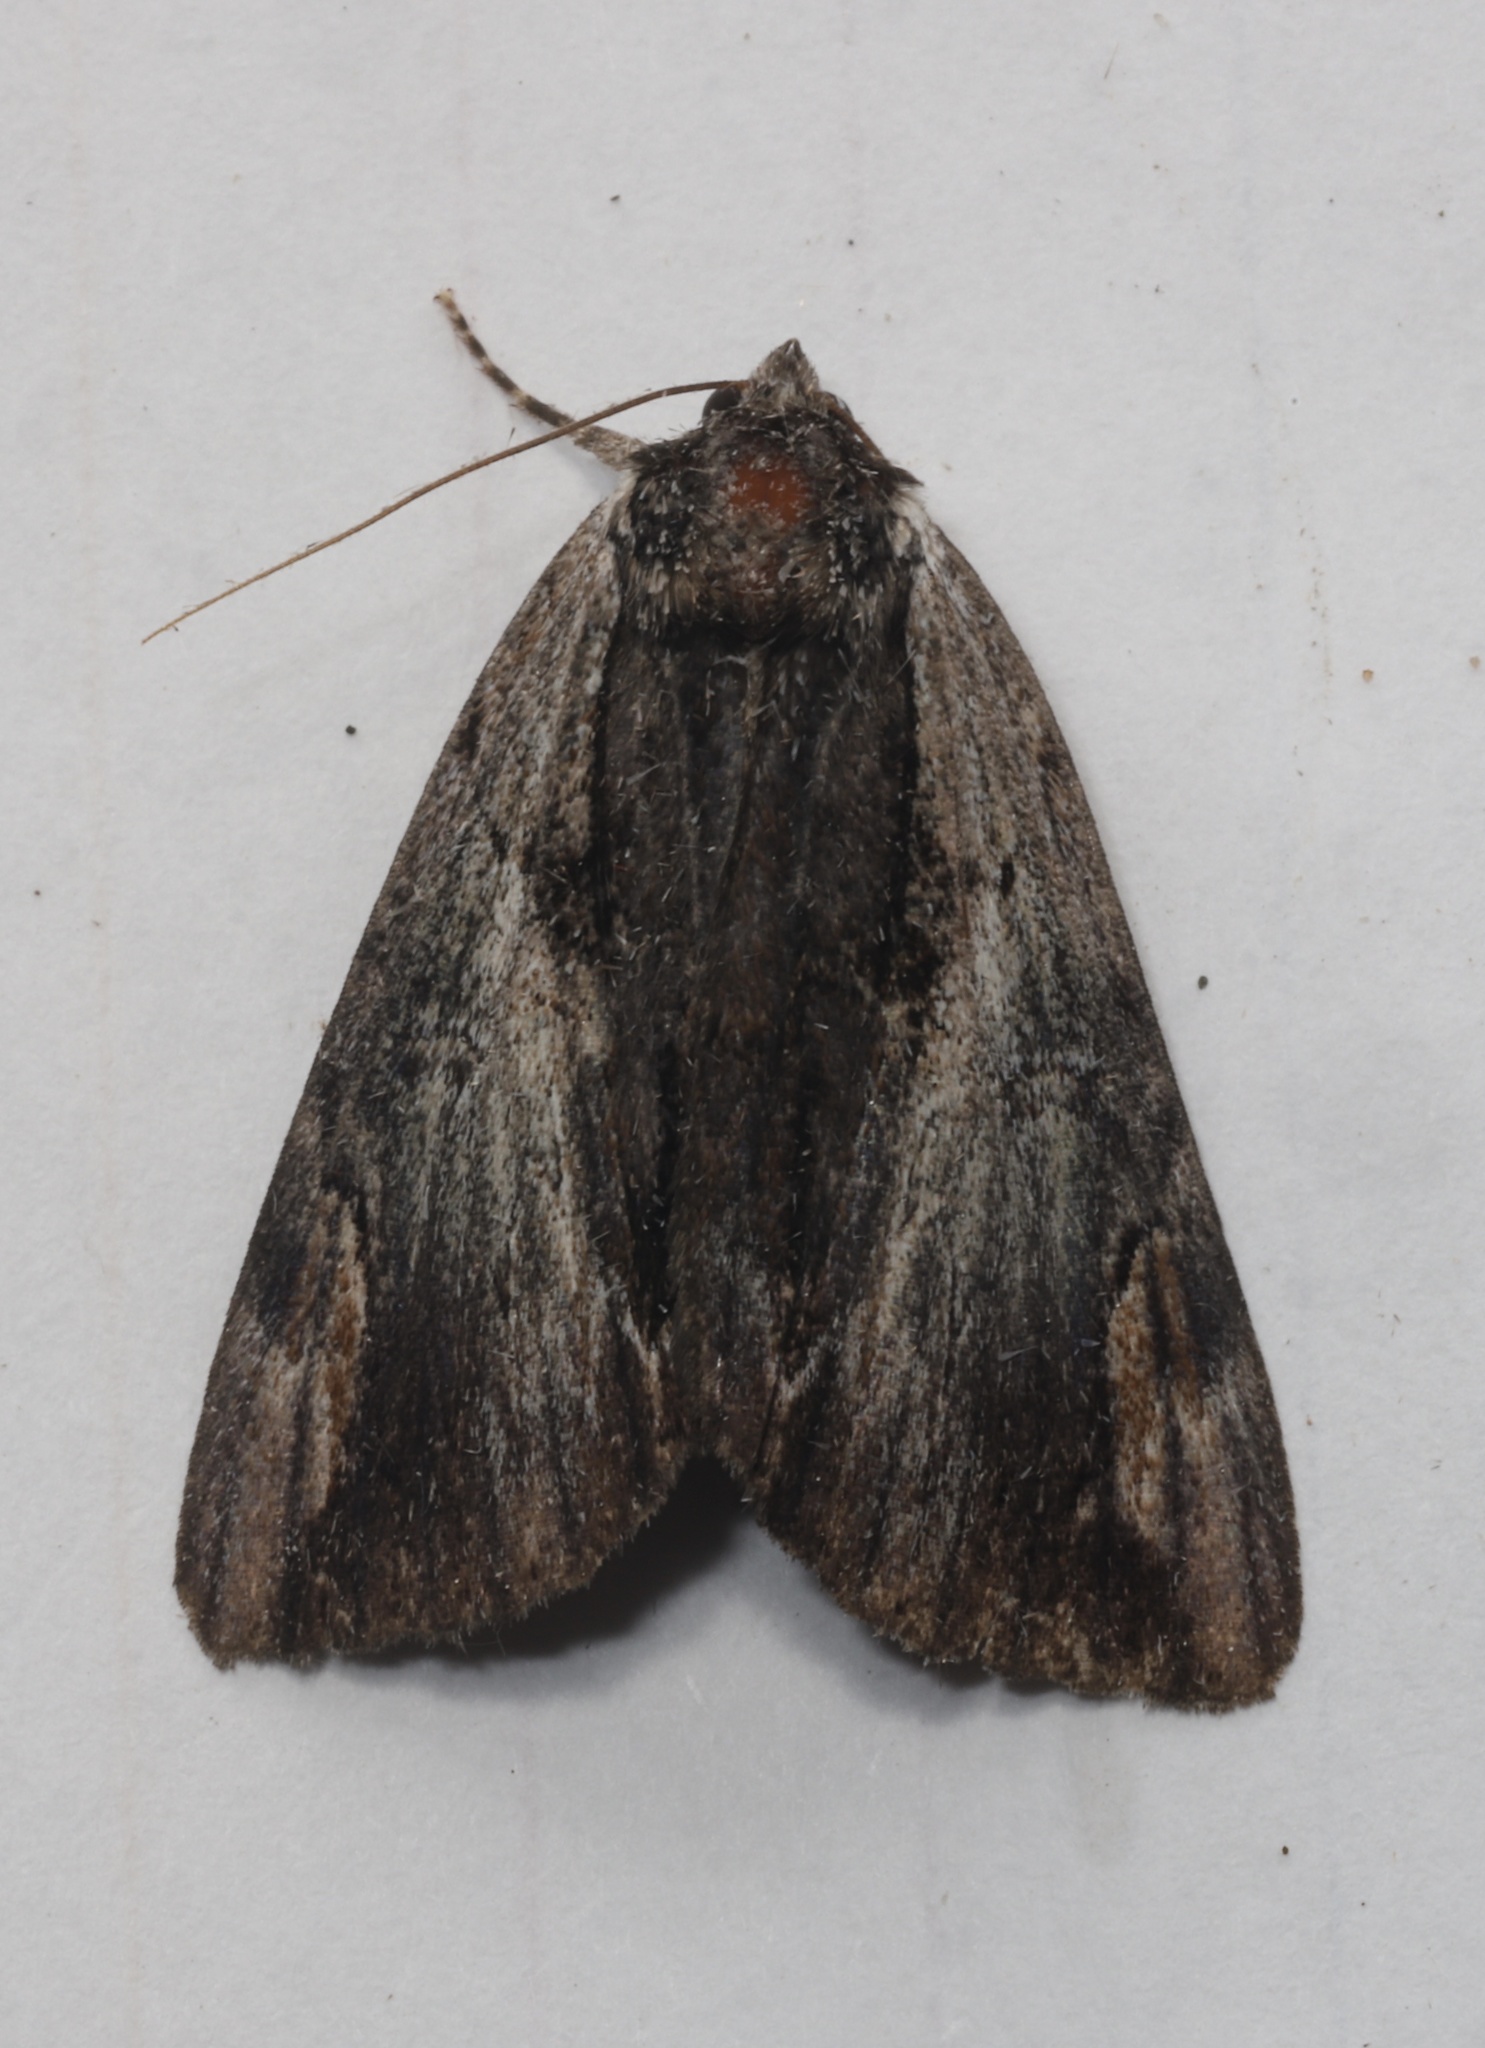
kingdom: Animalia
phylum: Arthropoda
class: Insecta
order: Lepidoptera
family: Erebidae
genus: Catocala
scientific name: Catocala ultronia
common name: Ultronia underwing
